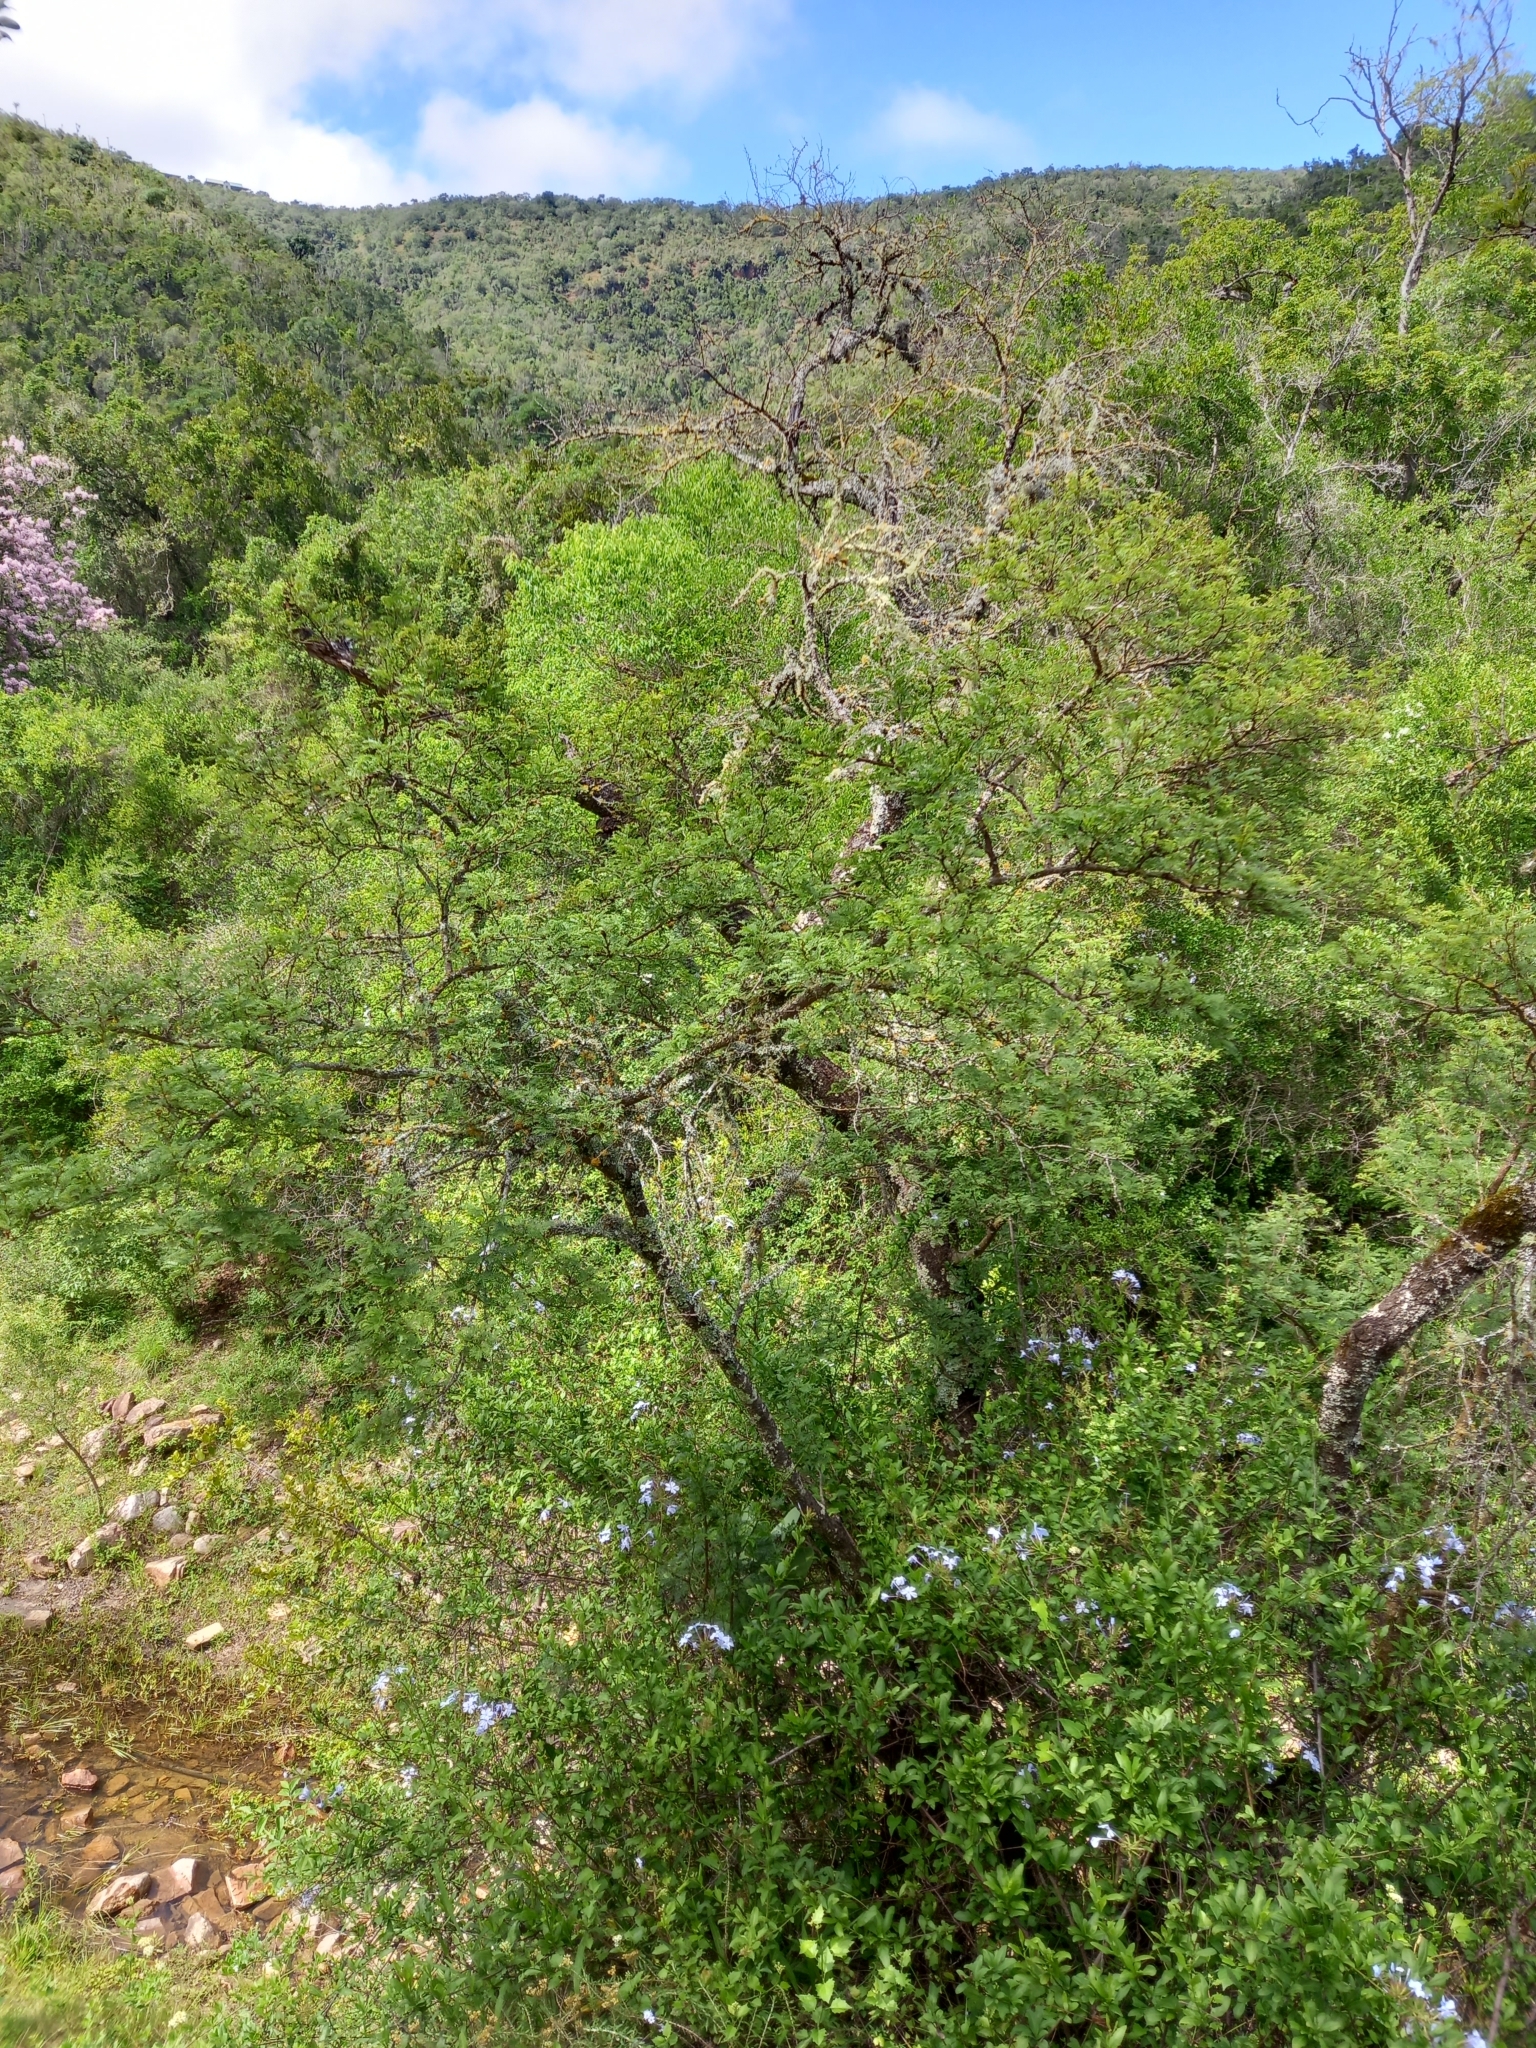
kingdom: Plantae
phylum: Tracheophyta
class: Magnoliopsida
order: Fabales
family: Fabaceae
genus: Vachellia
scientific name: Vachellia karroo
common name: Sweet thorn
